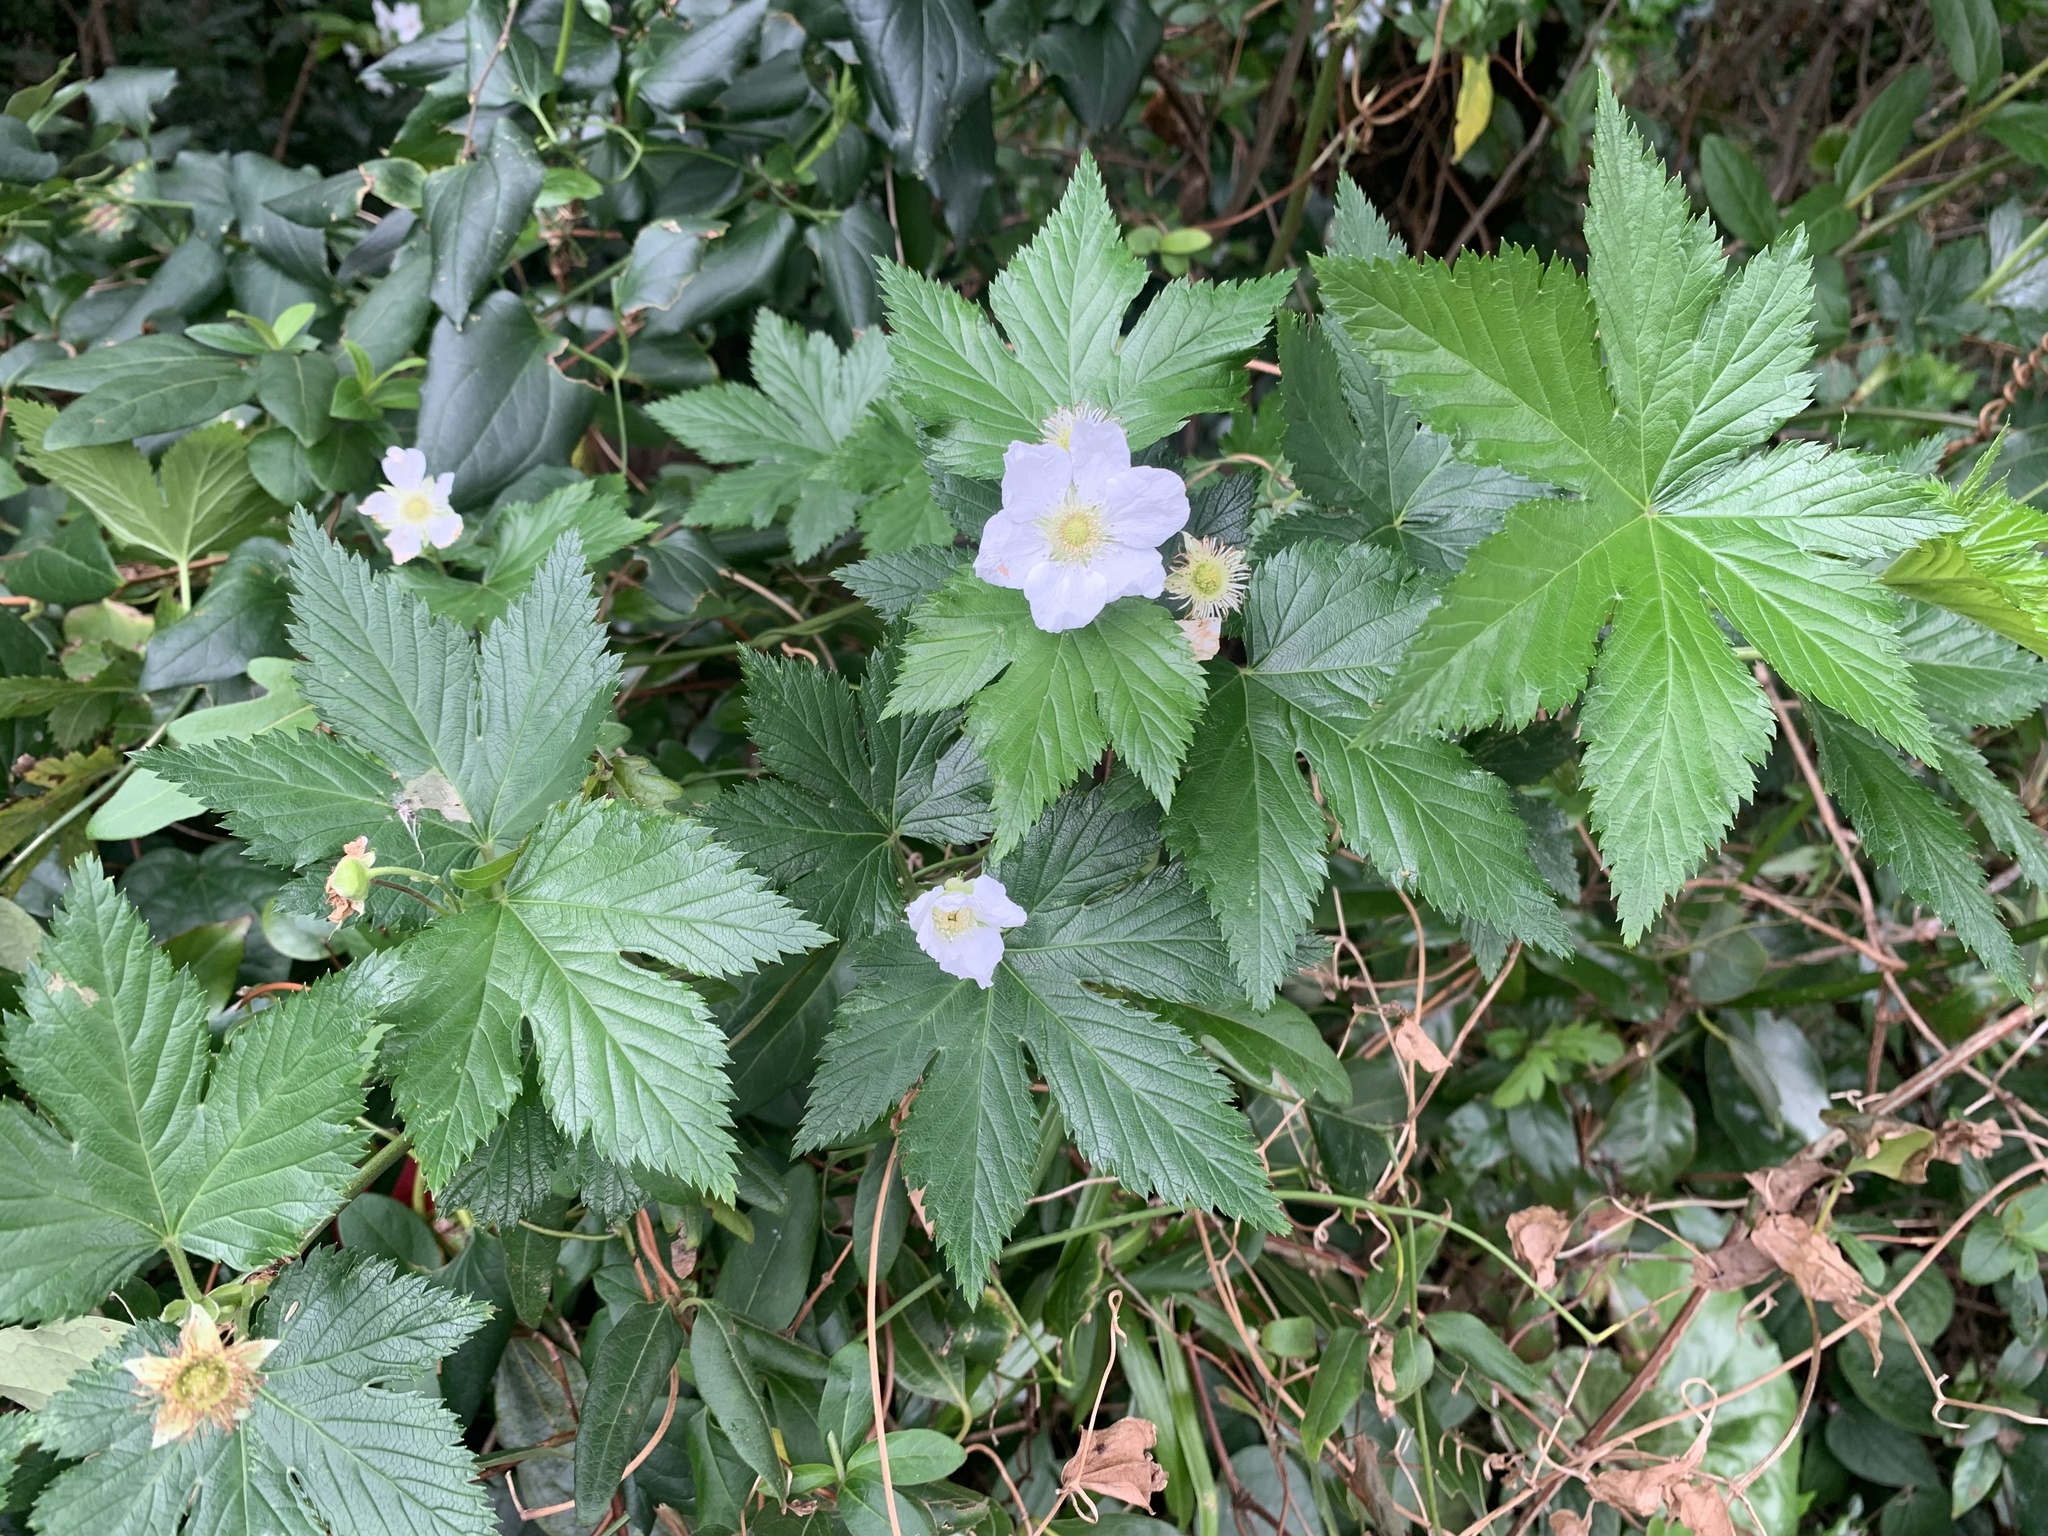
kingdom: Plantae
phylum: Tracheophyta
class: Magnoliopsida
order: Rosales
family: Rosaceae
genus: Rubus
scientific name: Rubus trifidus
